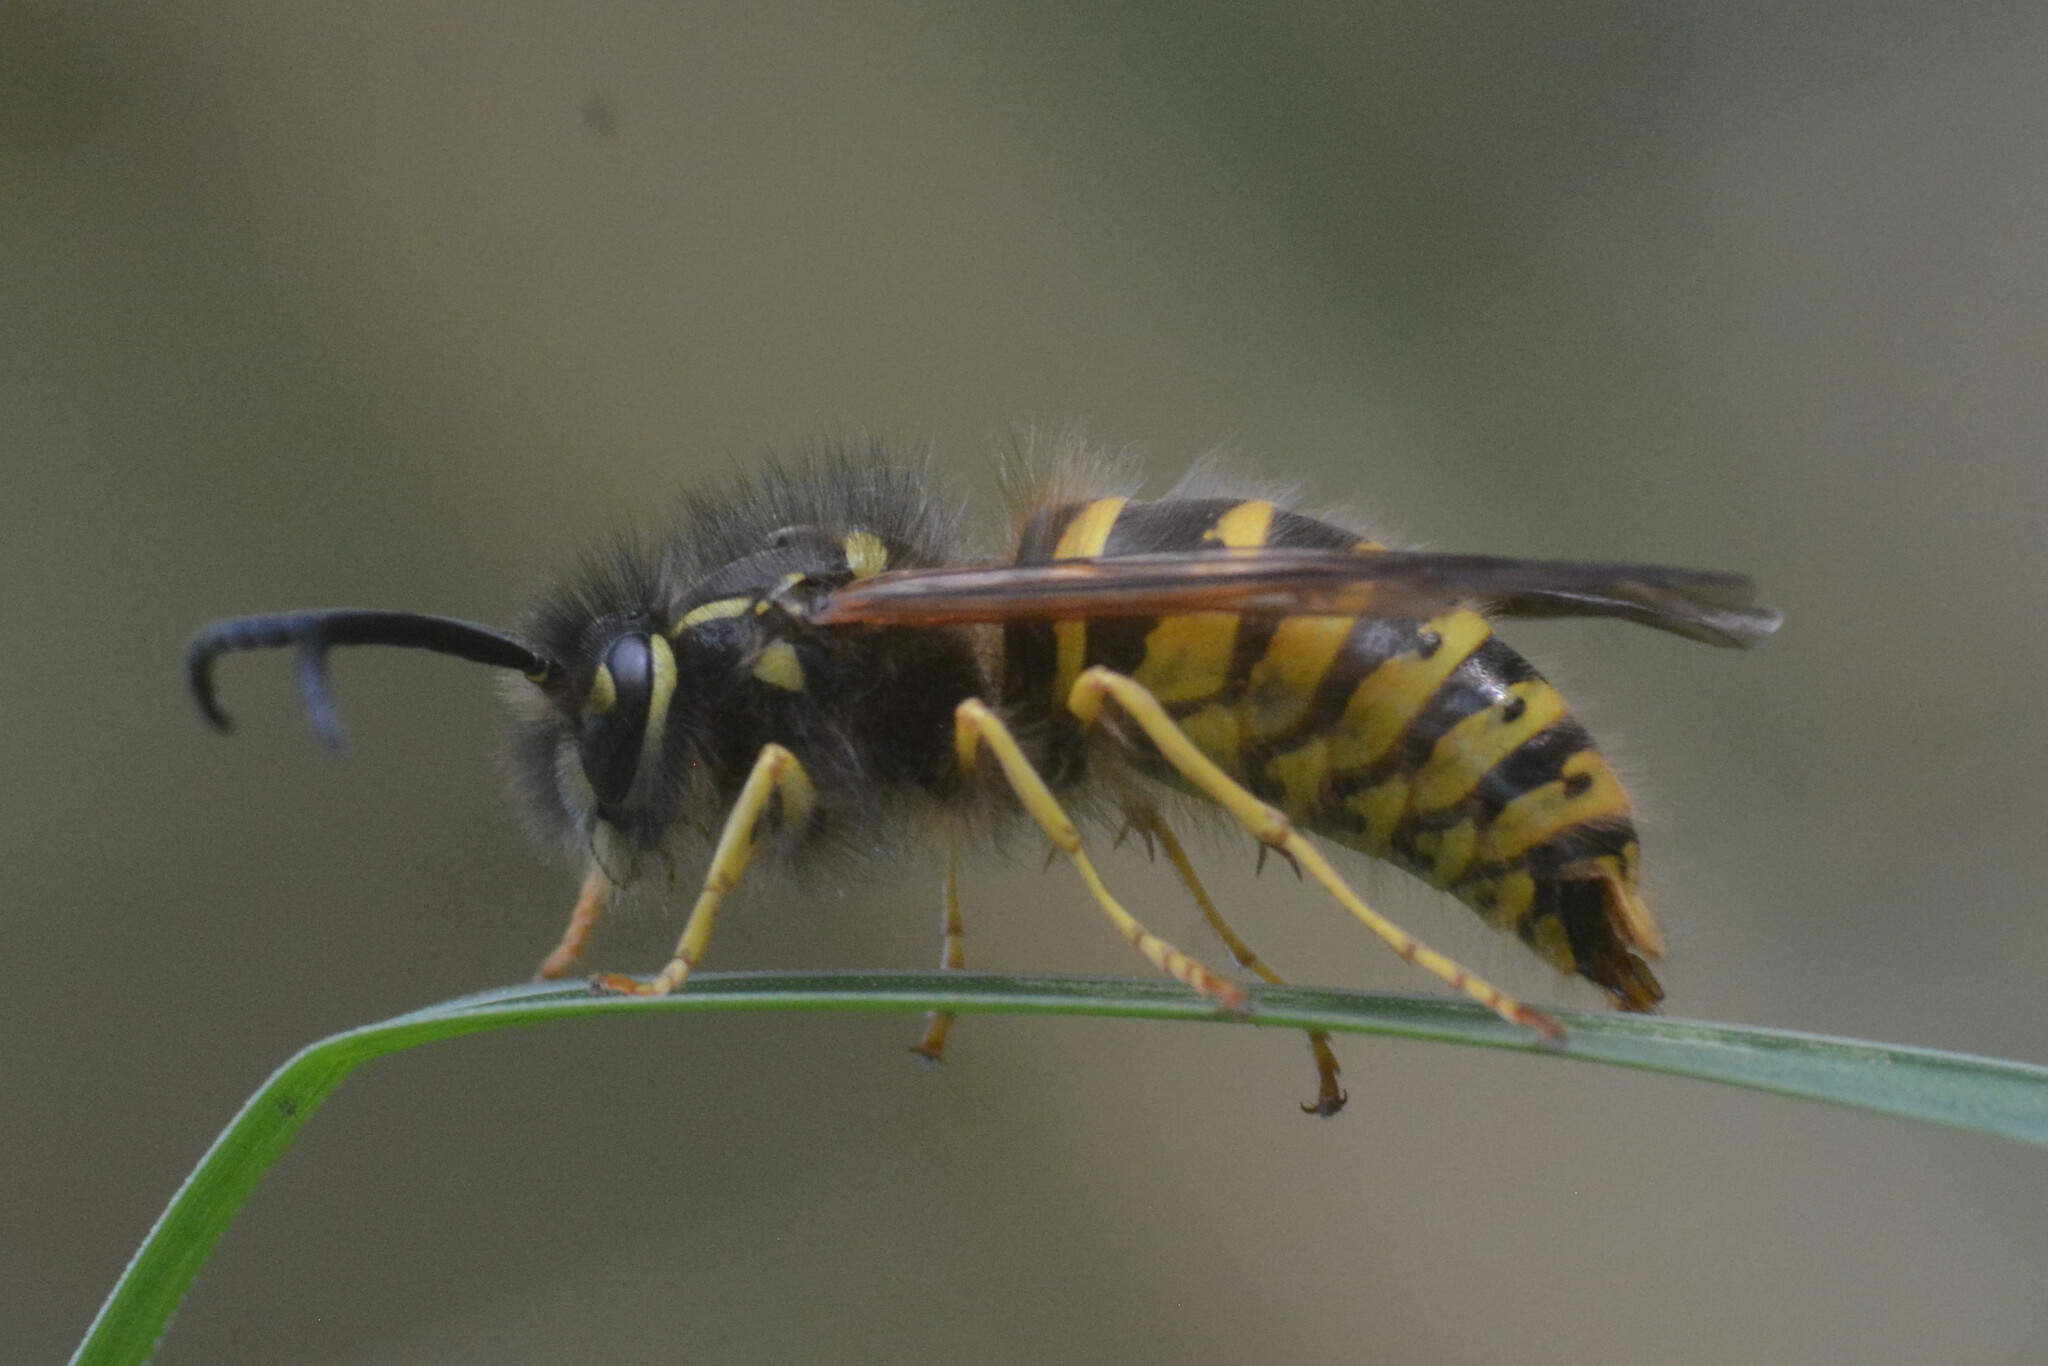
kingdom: Animalia
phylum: Arthropoda
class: Insecta
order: Hymenoptera
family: Vespidae
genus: Vespula
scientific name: Vespula vulgaris
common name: Common wasp
